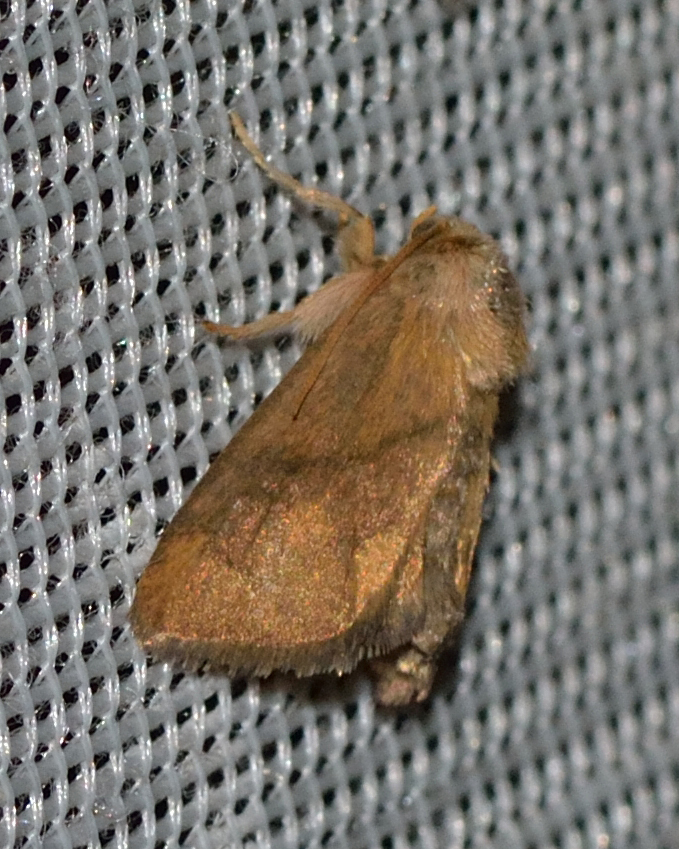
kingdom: Animalia
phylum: Arthropoda
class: Insecta
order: Lepidoptera
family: Limacodidae
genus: Apoda
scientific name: Apoda limacodes
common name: Festoon
